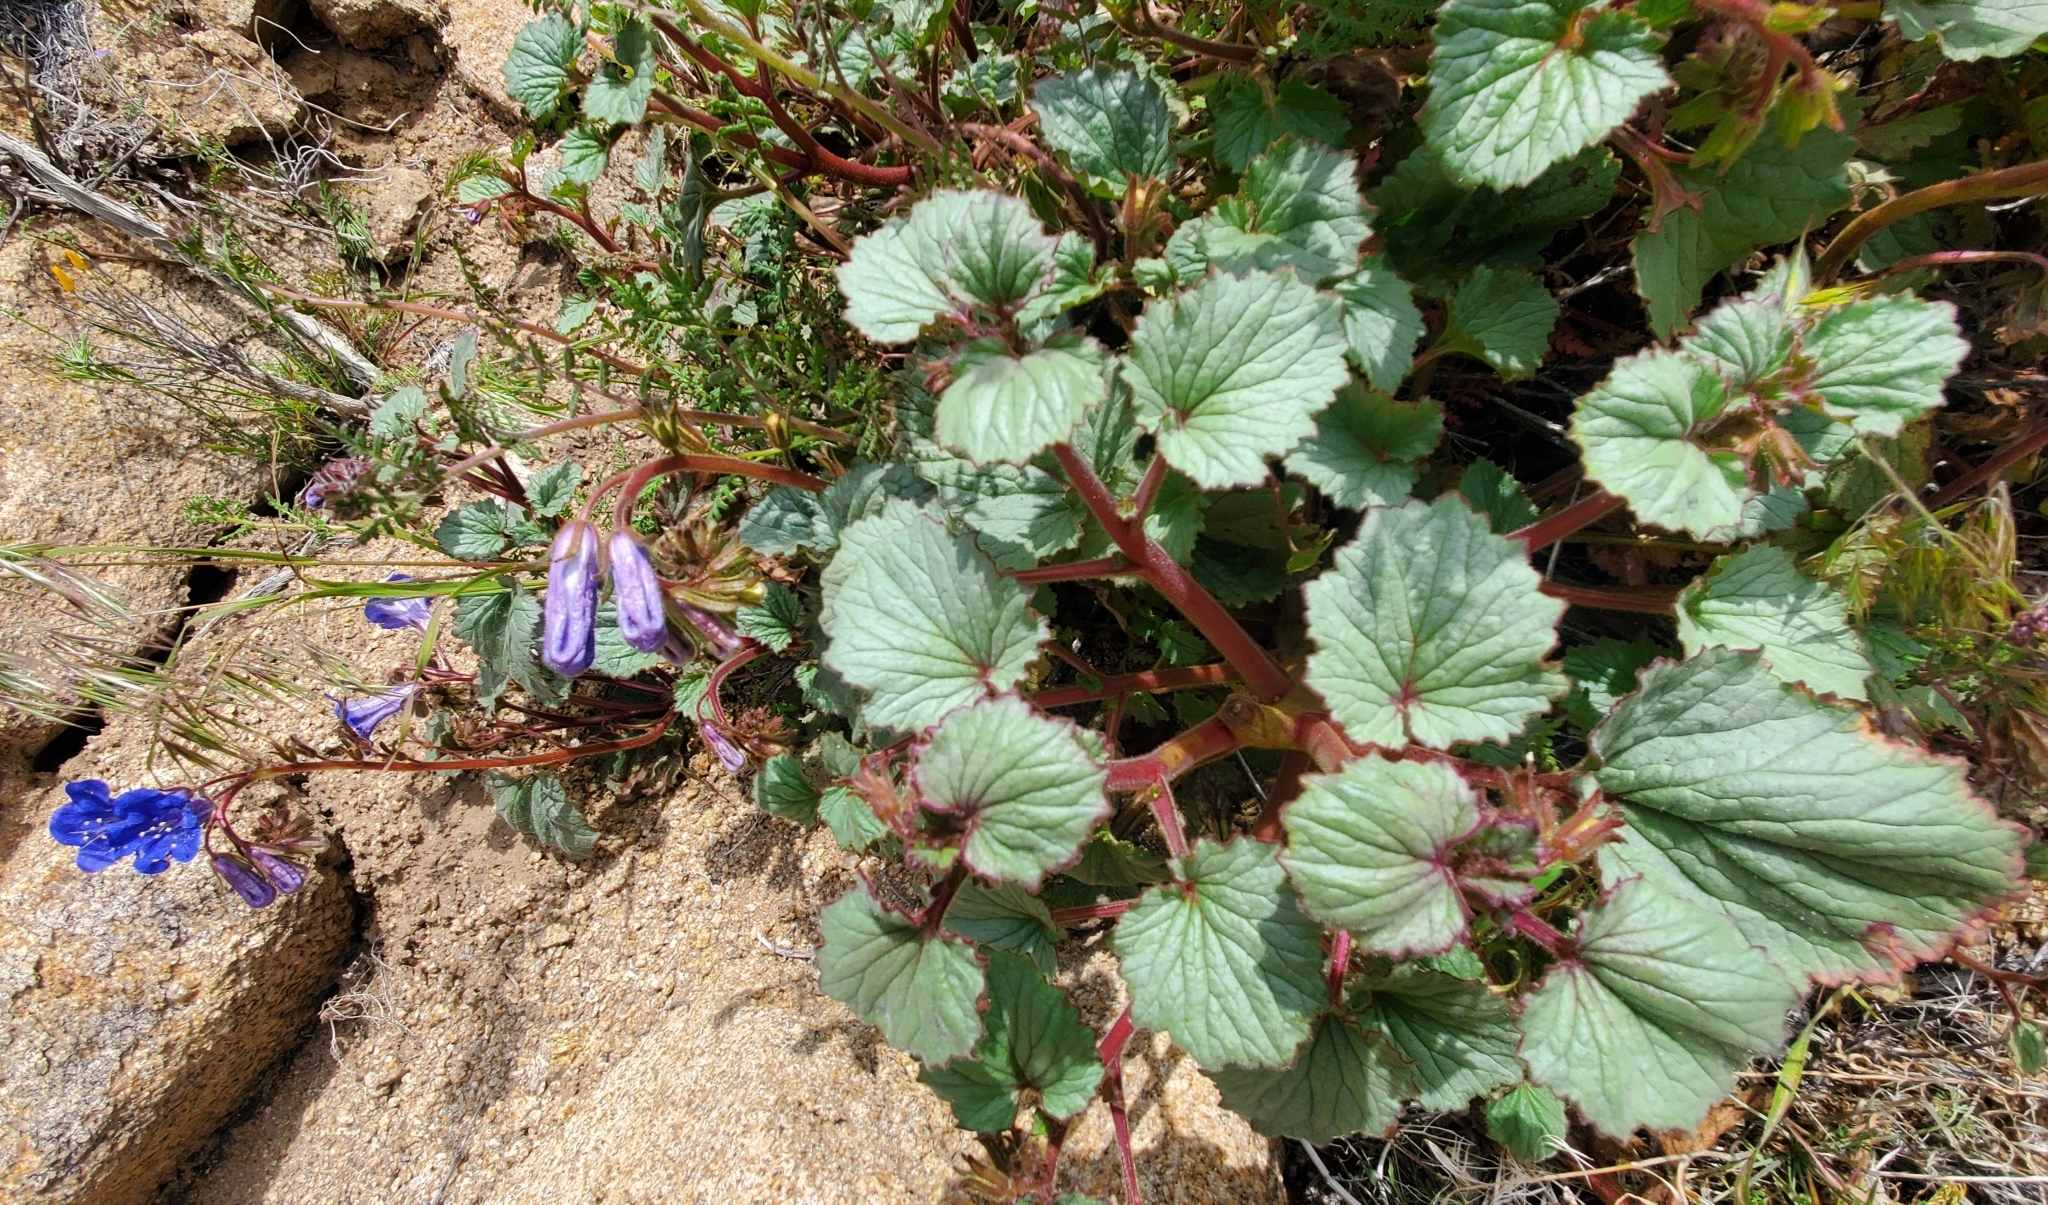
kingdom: Plantae
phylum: Tracheophyta
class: Magnoliopsida
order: Boraginales
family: Hydrophyllaceae
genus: Phacelia
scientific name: Phacelia campanularia
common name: California bluebell
